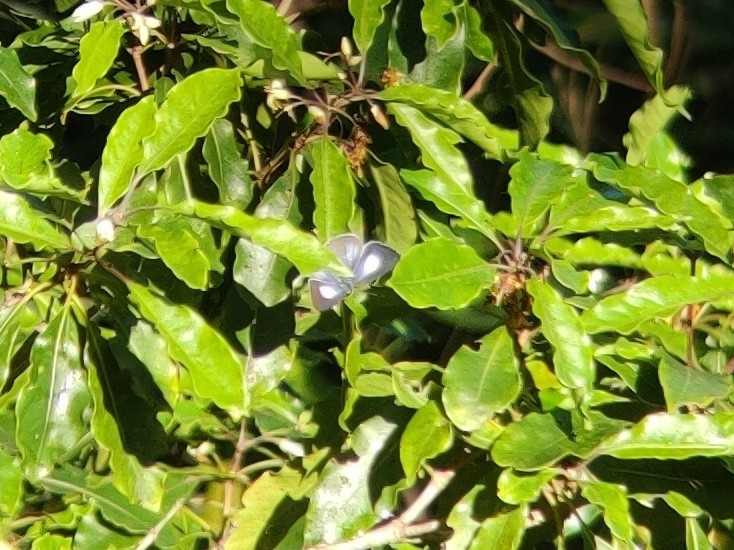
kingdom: Animalia
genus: Eirmocides
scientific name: Eirmocides
